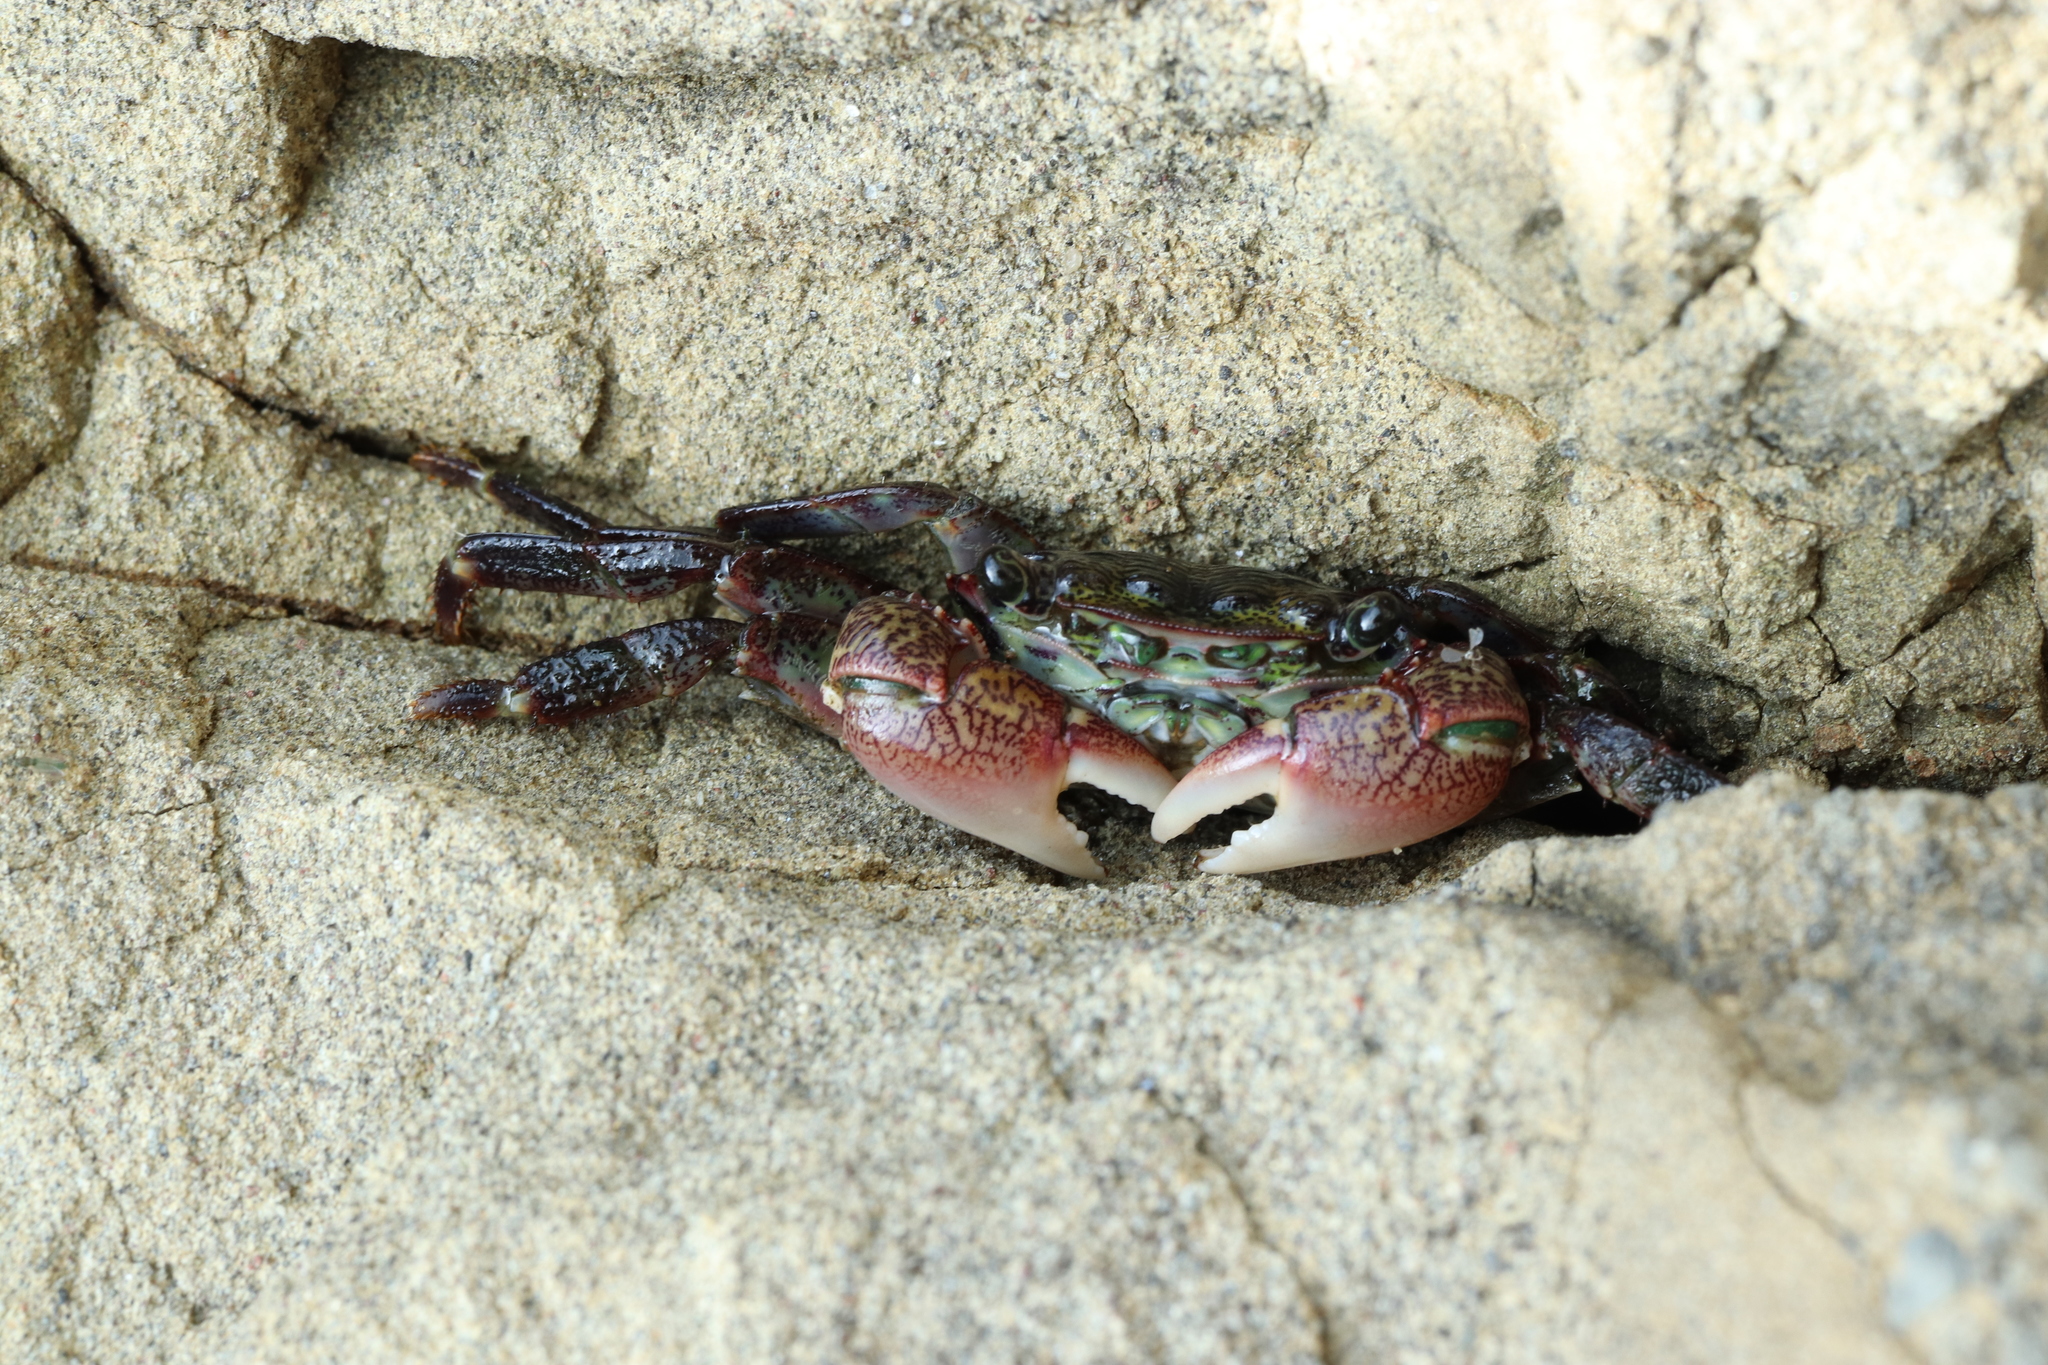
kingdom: Animalia
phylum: Arthropoda
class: Malacostraca
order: Decapoda
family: Grapsidae
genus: Pachygrapsus
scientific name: Pachygrapsus crassipes
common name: Striped shore crab
